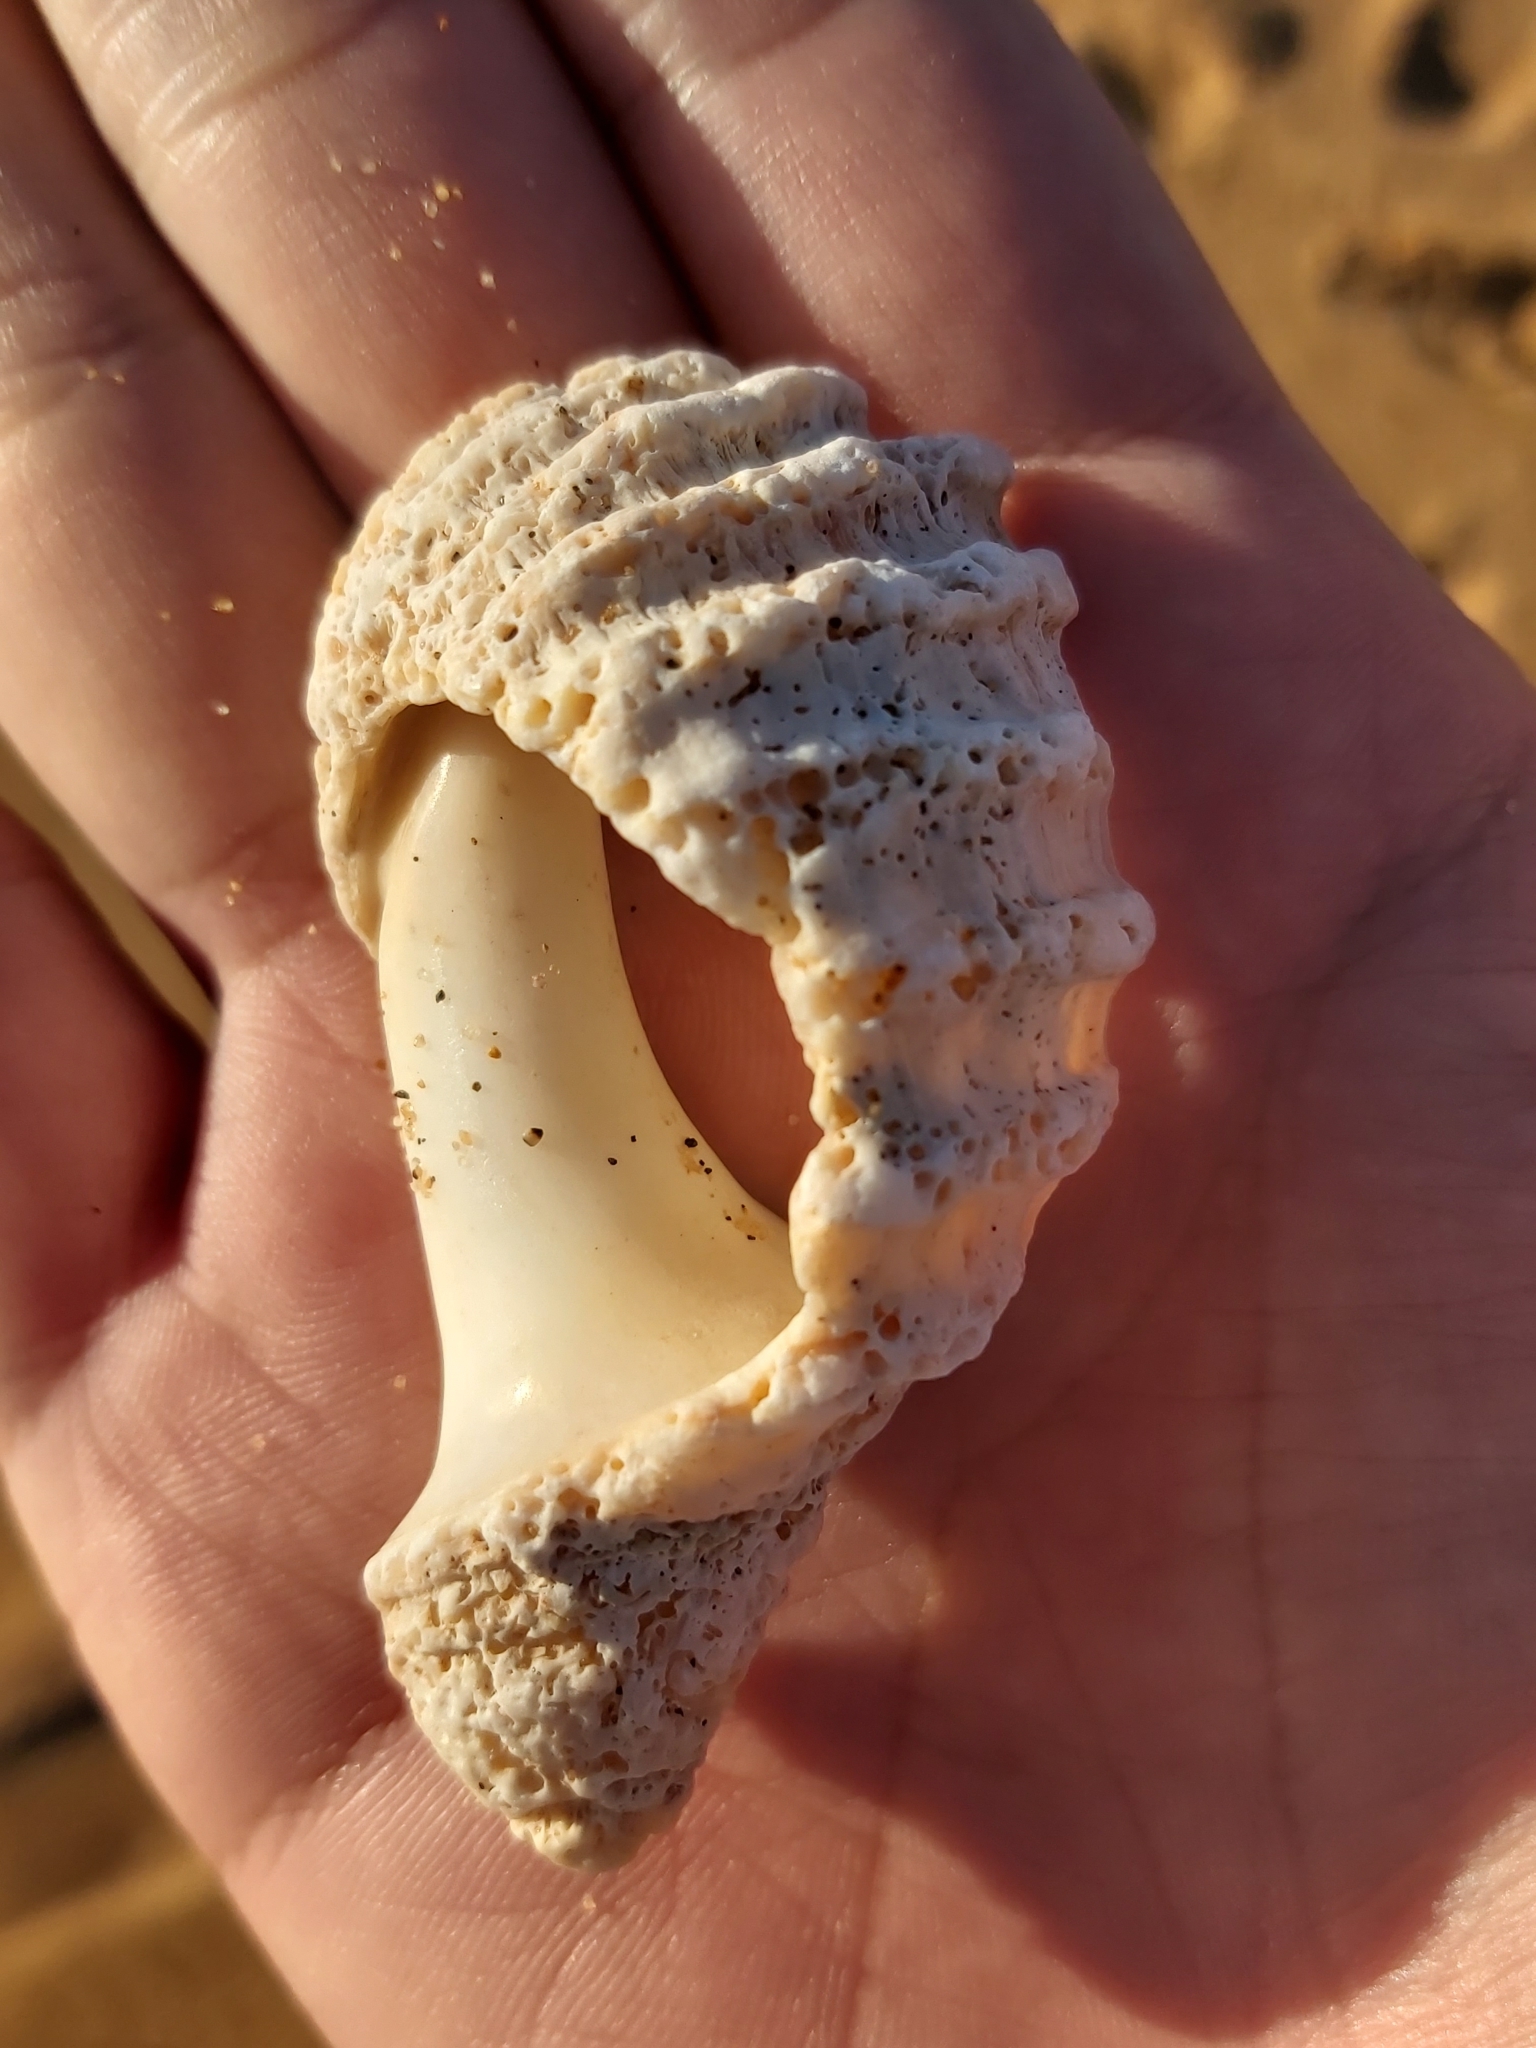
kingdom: Animalia
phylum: Mollusca
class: Gastropoda
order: Neogastropoda
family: Muricidae
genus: Dicathais
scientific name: Dicathais orbita
